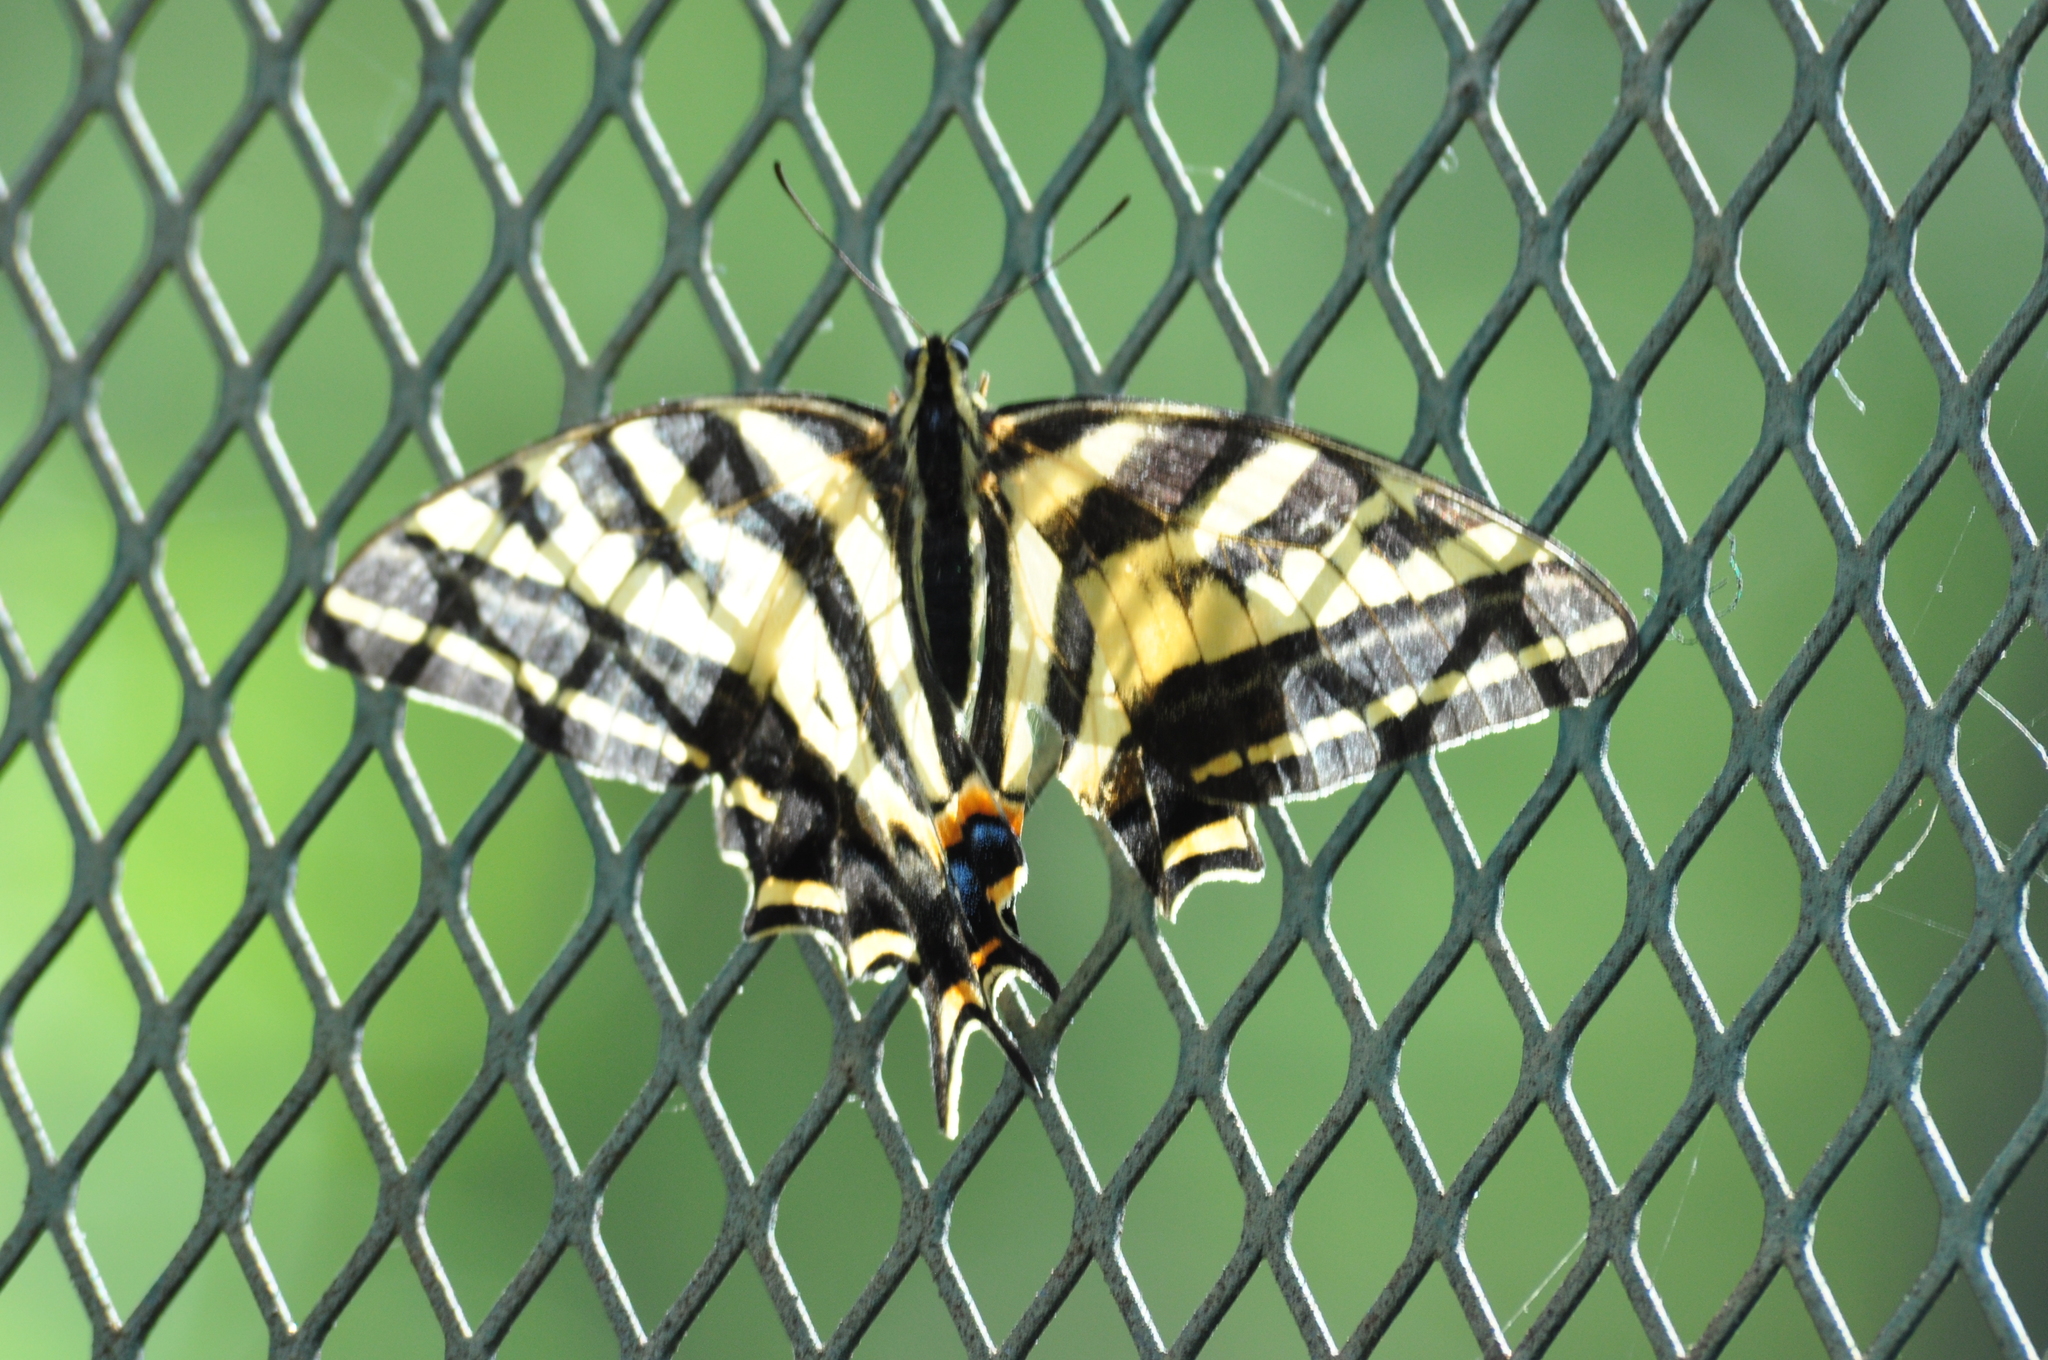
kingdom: Animalia
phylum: Arthropoda
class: Insecta
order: Lepidoptera
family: Papilionidae
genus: Papilio
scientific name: Papilio pilumnus
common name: Three-tailed tiger swallowtail
